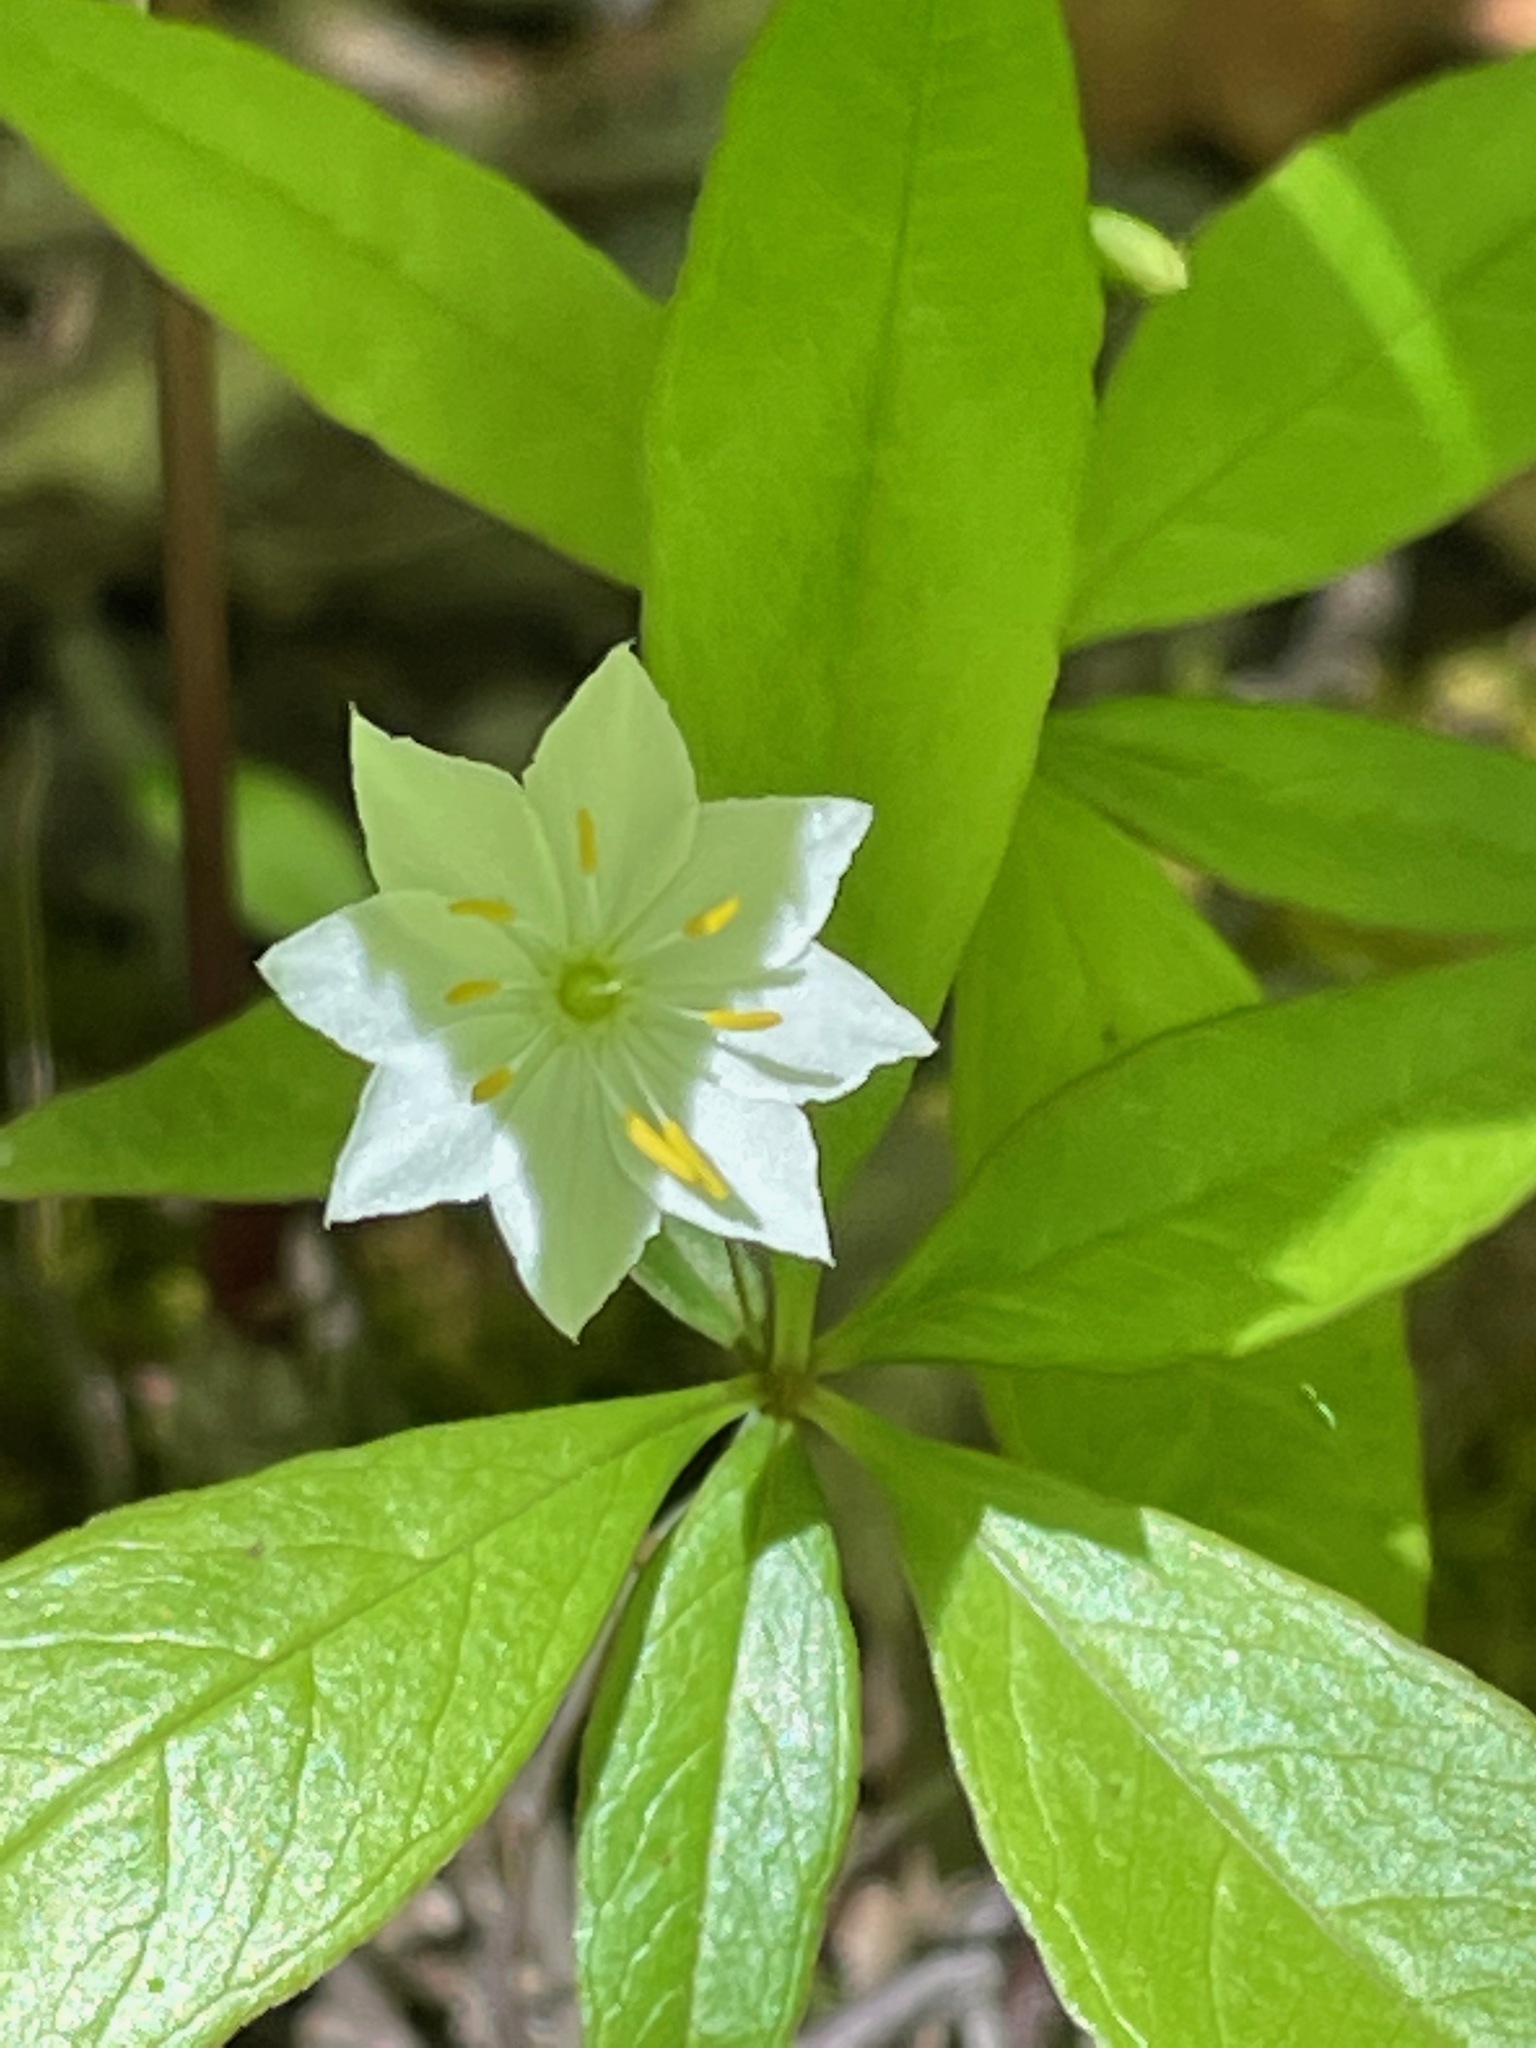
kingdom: Plantae
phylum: Tracheophyta
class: Magnoliopsida
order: Ericales
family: Primulaceae
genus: Lysimachia
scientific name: Lysimachia borealis
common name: American starflower
